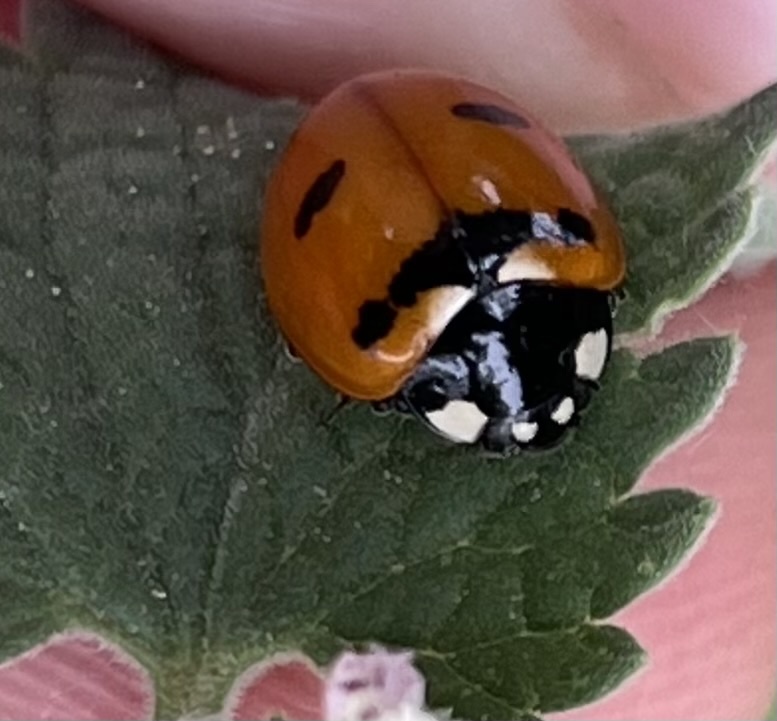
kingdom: Animalia
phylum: Arthropoda
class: Insecta
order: Coleoptera
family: Coccinellidae
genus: Coccinella
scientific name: Coccinella transversoguttata
